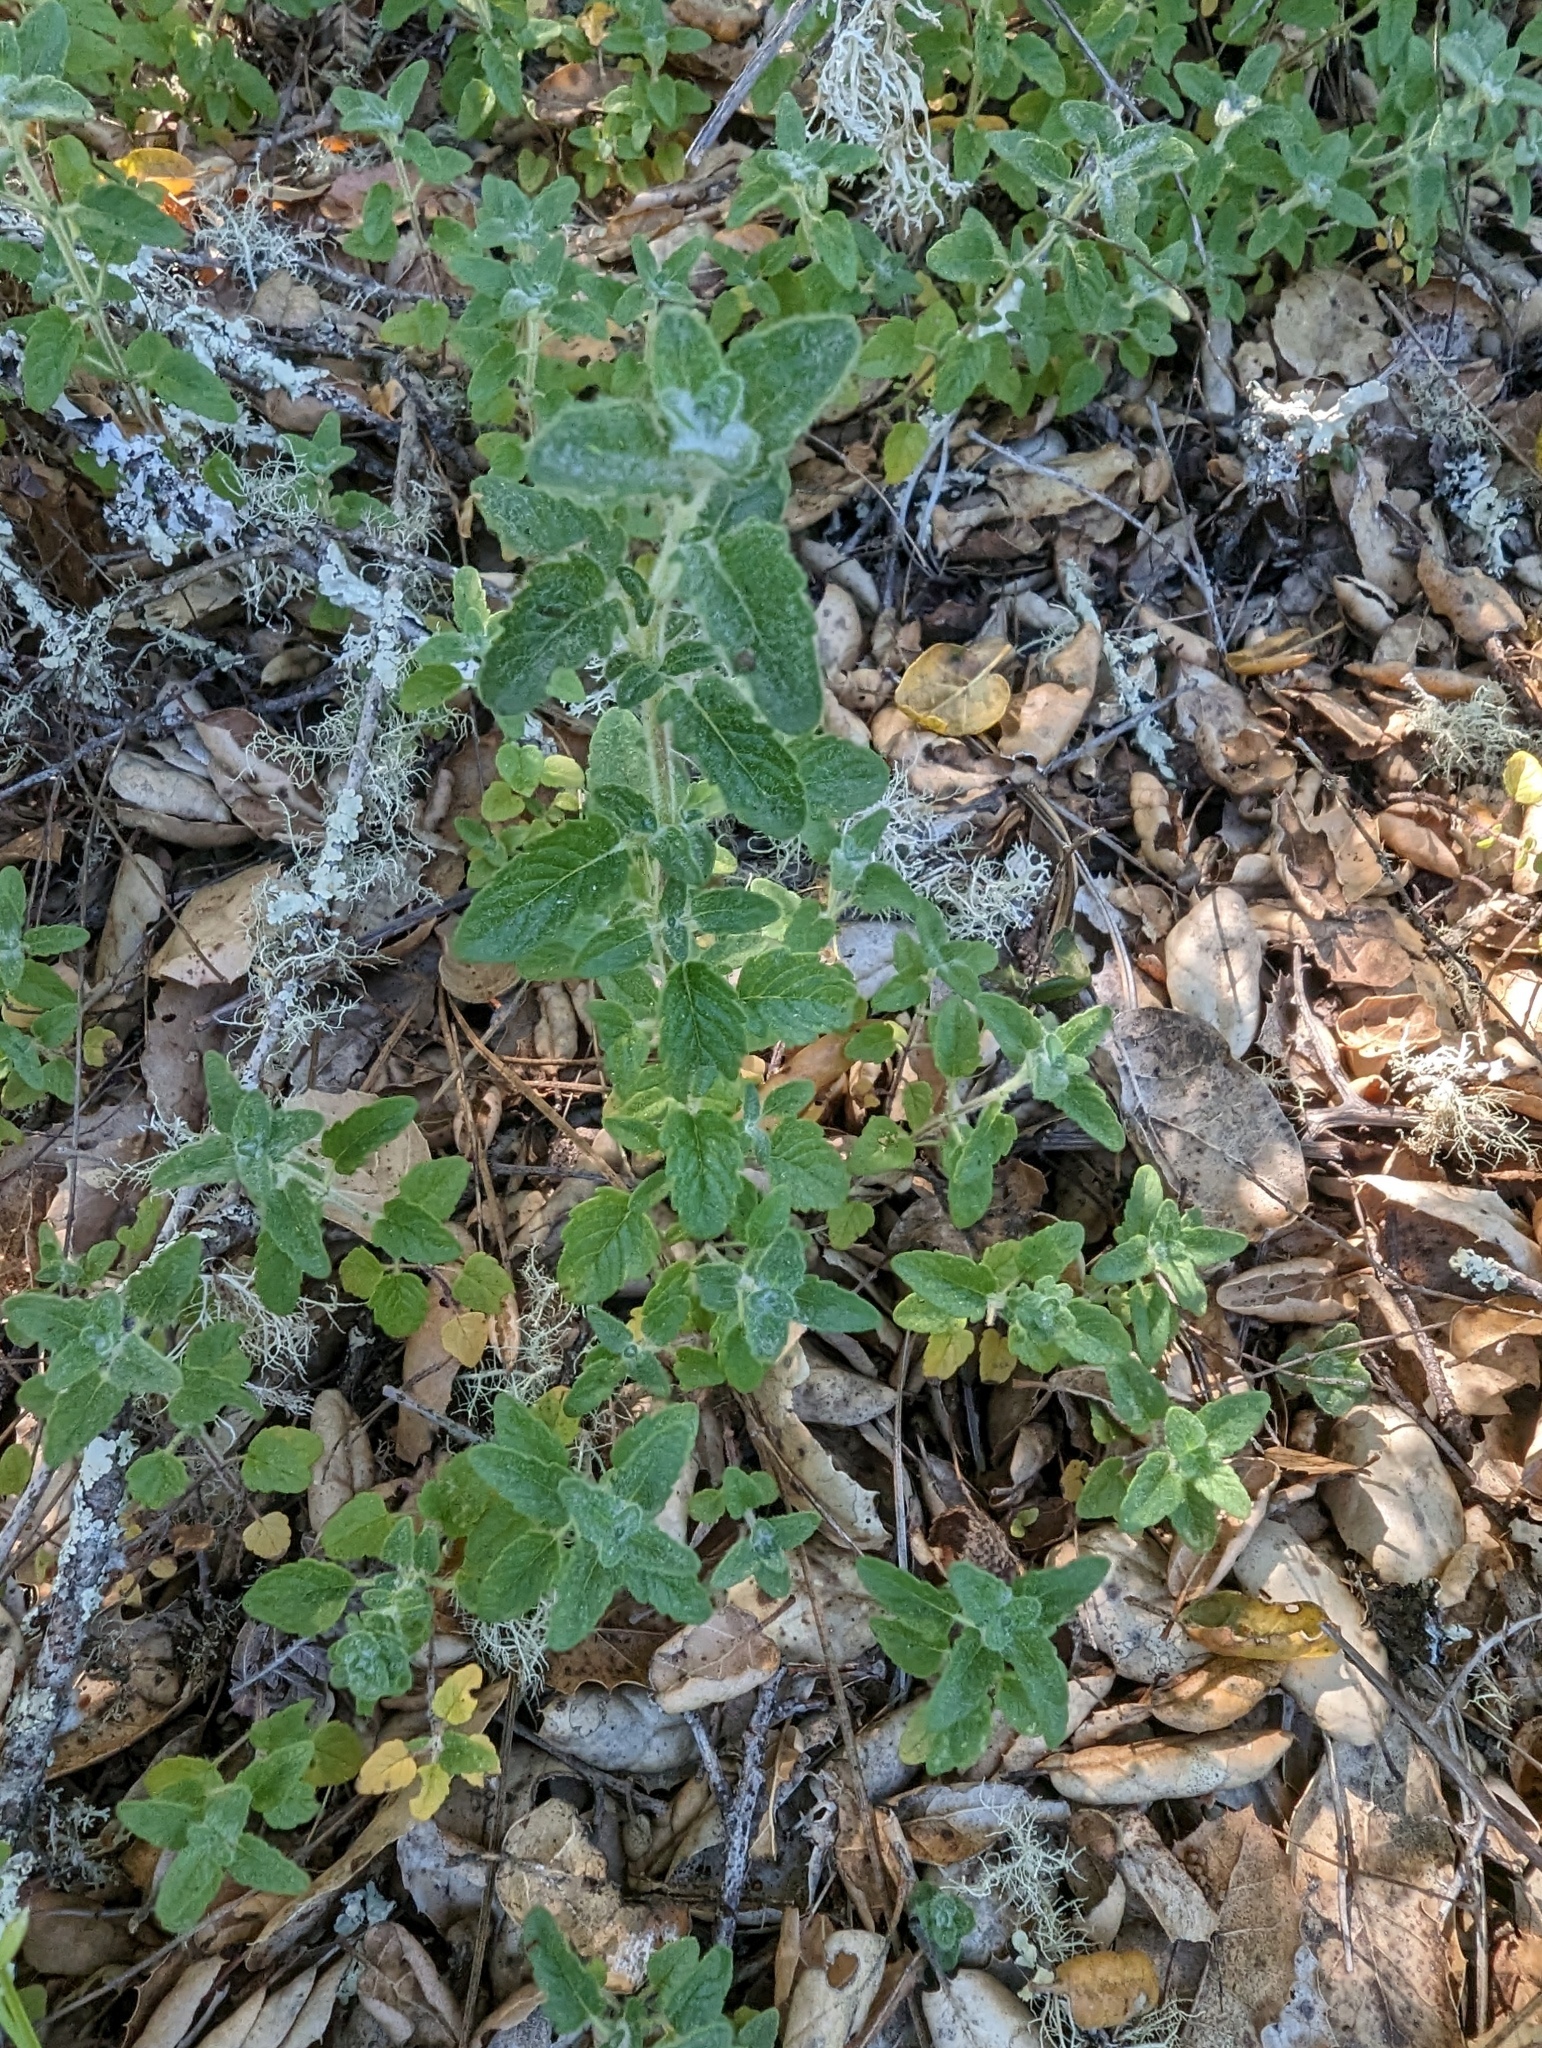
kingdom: Plantae
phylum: Tracheophyta
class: Magnoliopsida
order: Lamiales
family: Lamiaceae
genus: Monardella
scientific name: Monardella odoratissima
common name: Pacific monardella
